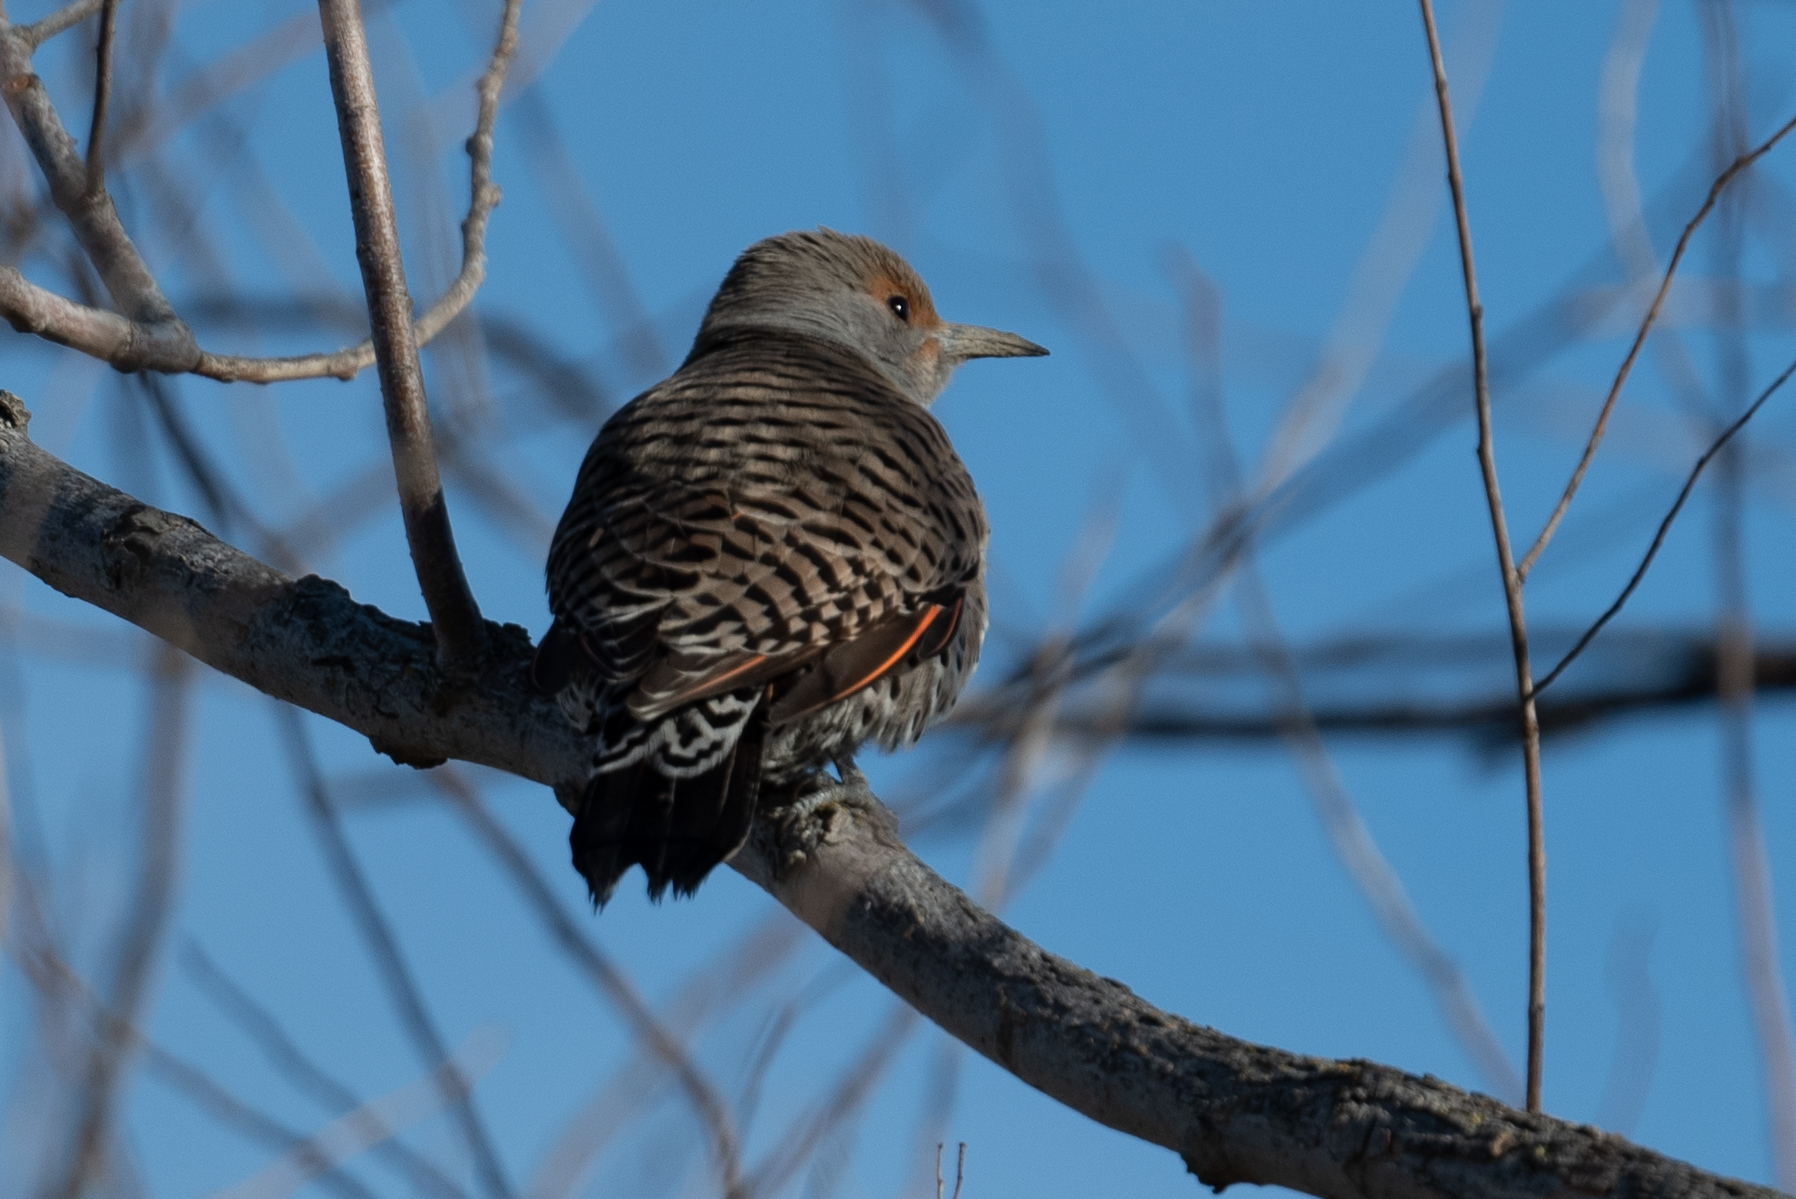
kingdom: Animalia
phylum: Chordata
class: Aves
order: Piciformes
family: Picidae
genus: Colaptes
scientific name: Colaptes auratus
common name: Northern flicker
